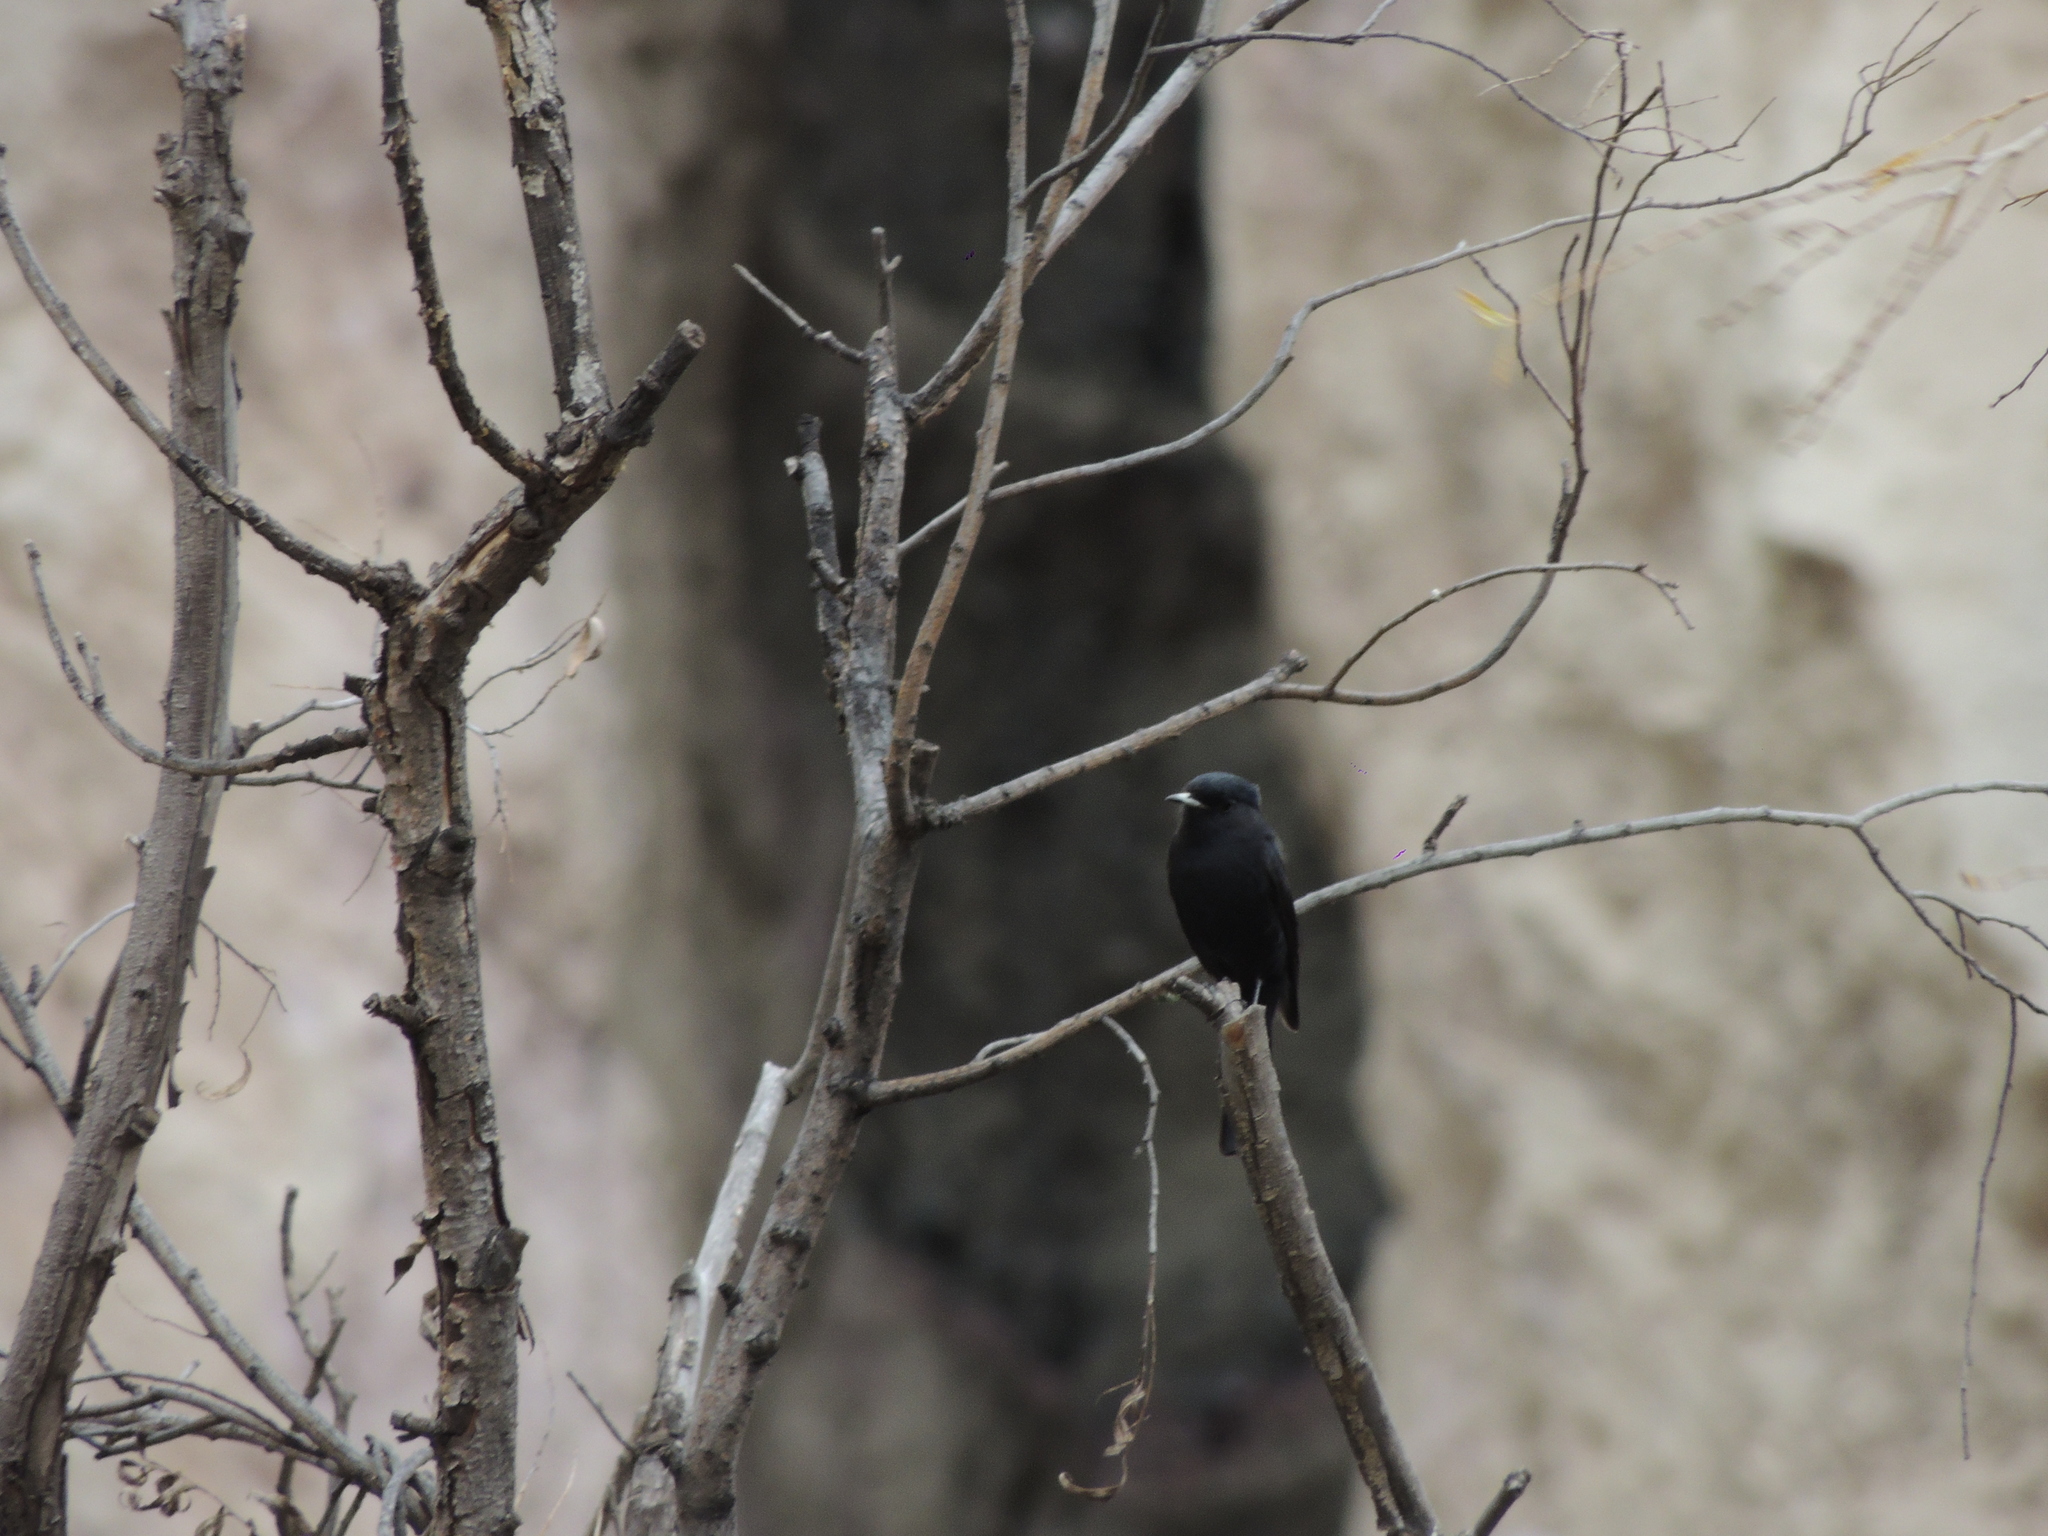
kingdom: Animalia
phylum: Chordata
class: Aves
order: Passeriformes
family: Tyrannidae
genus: Knipolegus
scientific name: Knipolegus aterrimus
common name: White-winged black tyrant
